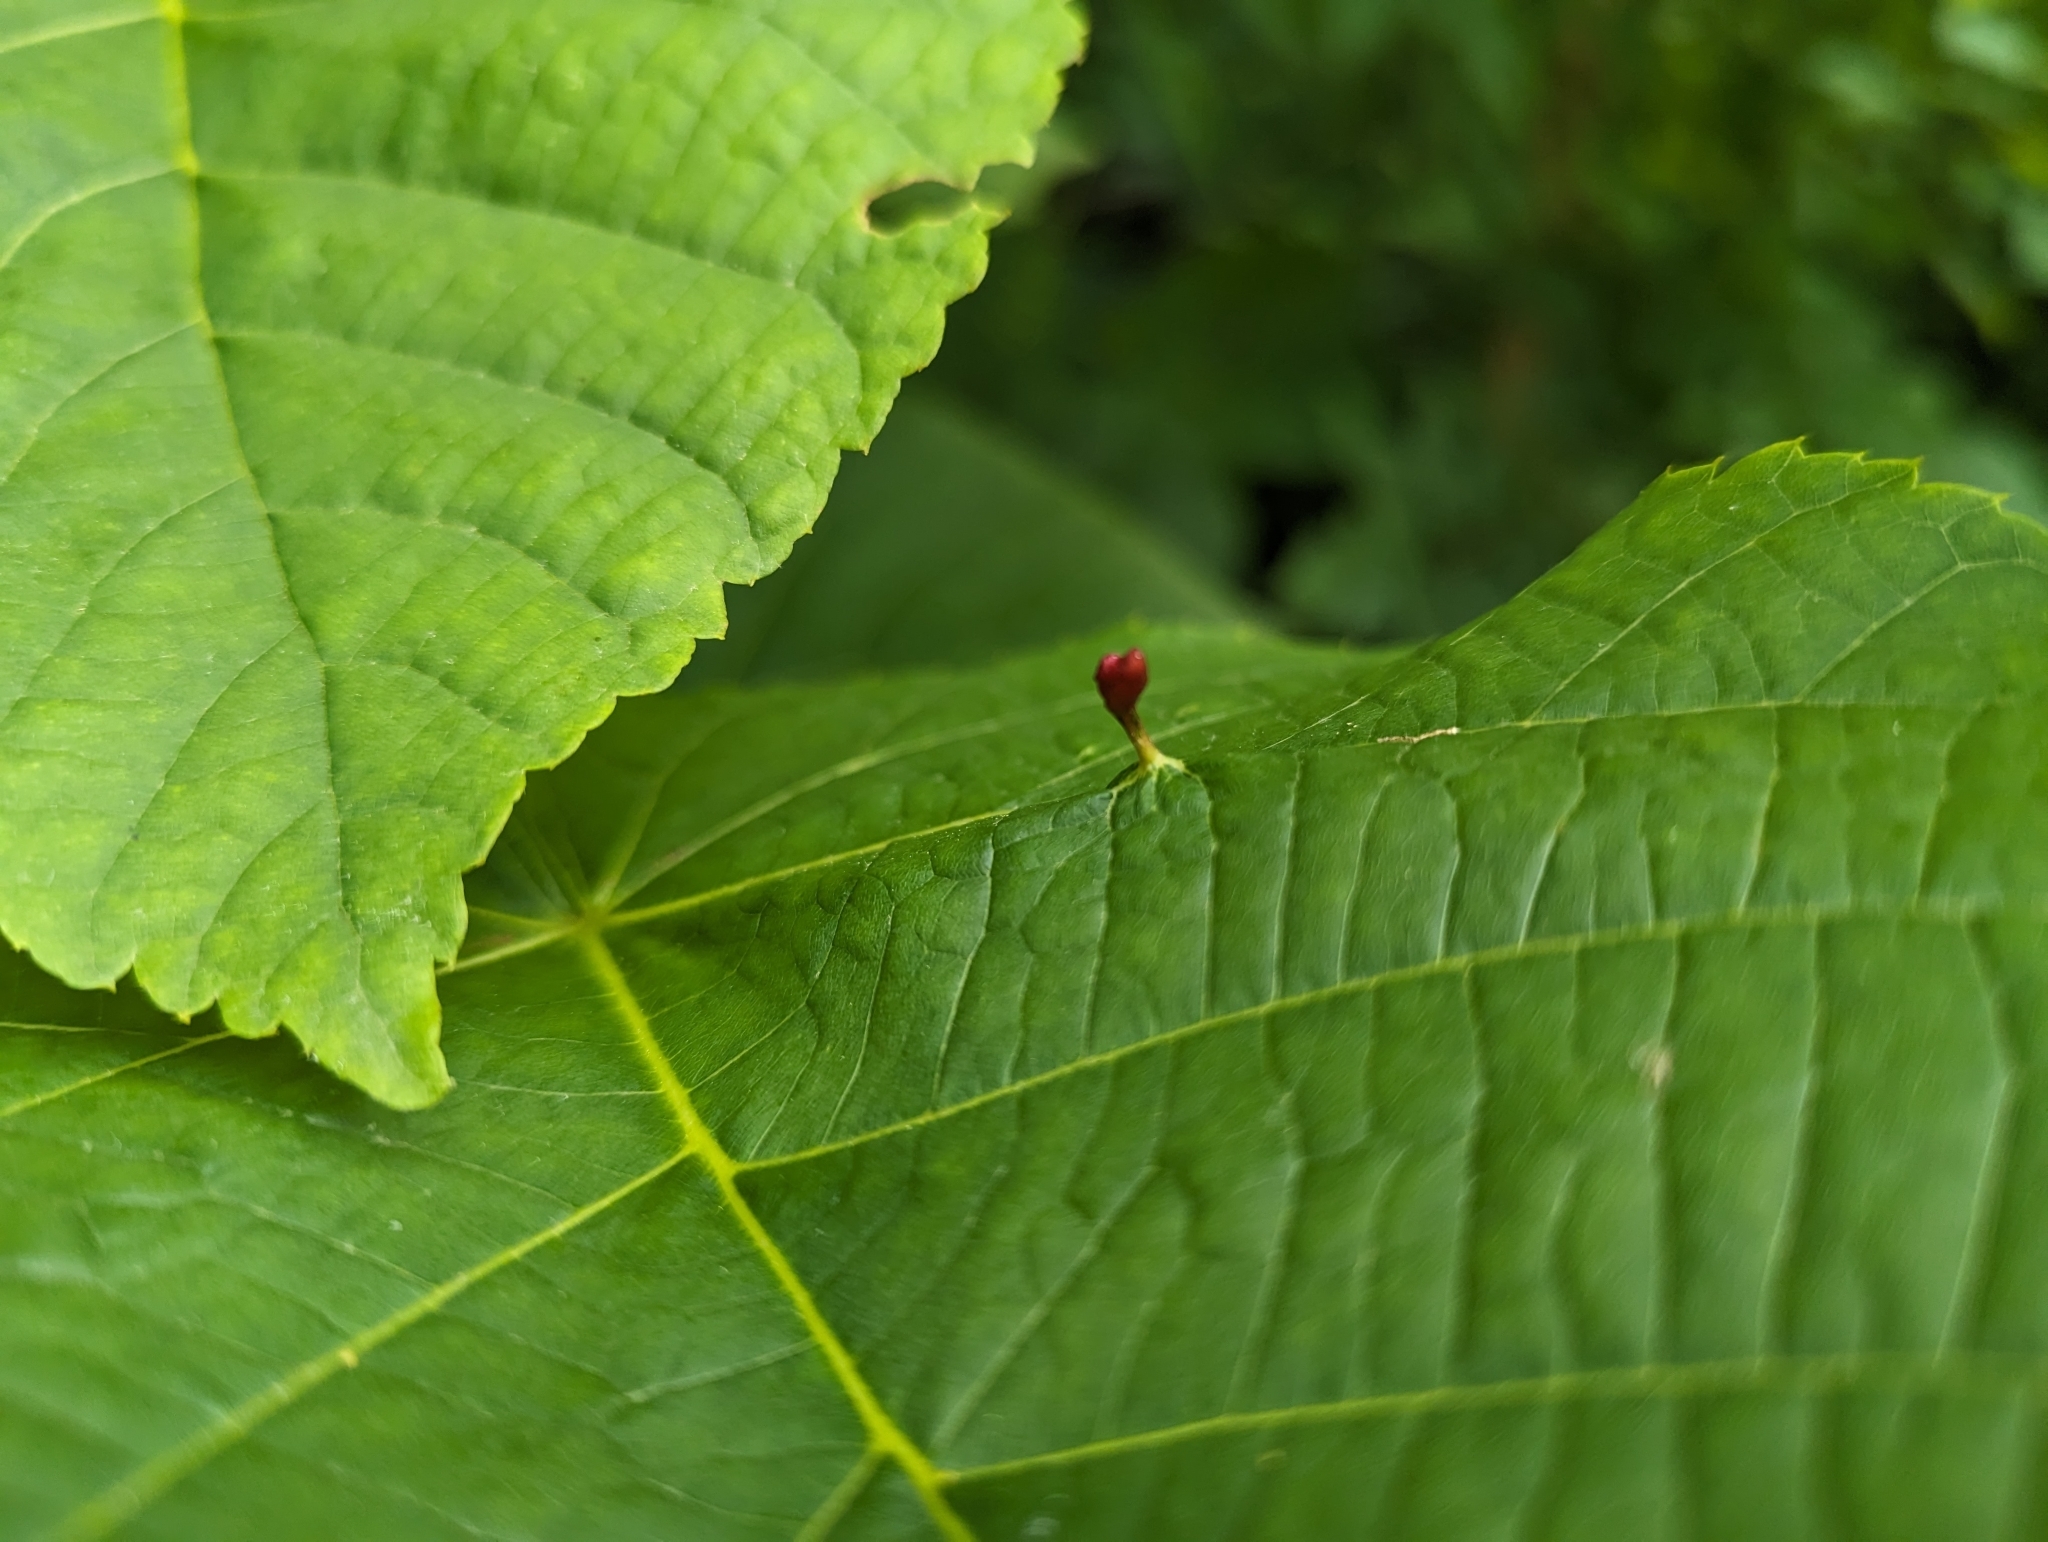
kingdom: Animalia
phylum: Arthropoda
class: Arachnida
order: Trombidiformes
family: Eriophyidae
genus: Eriophyes
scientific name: Eriophyes tiliae
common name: Red nail gall mite
